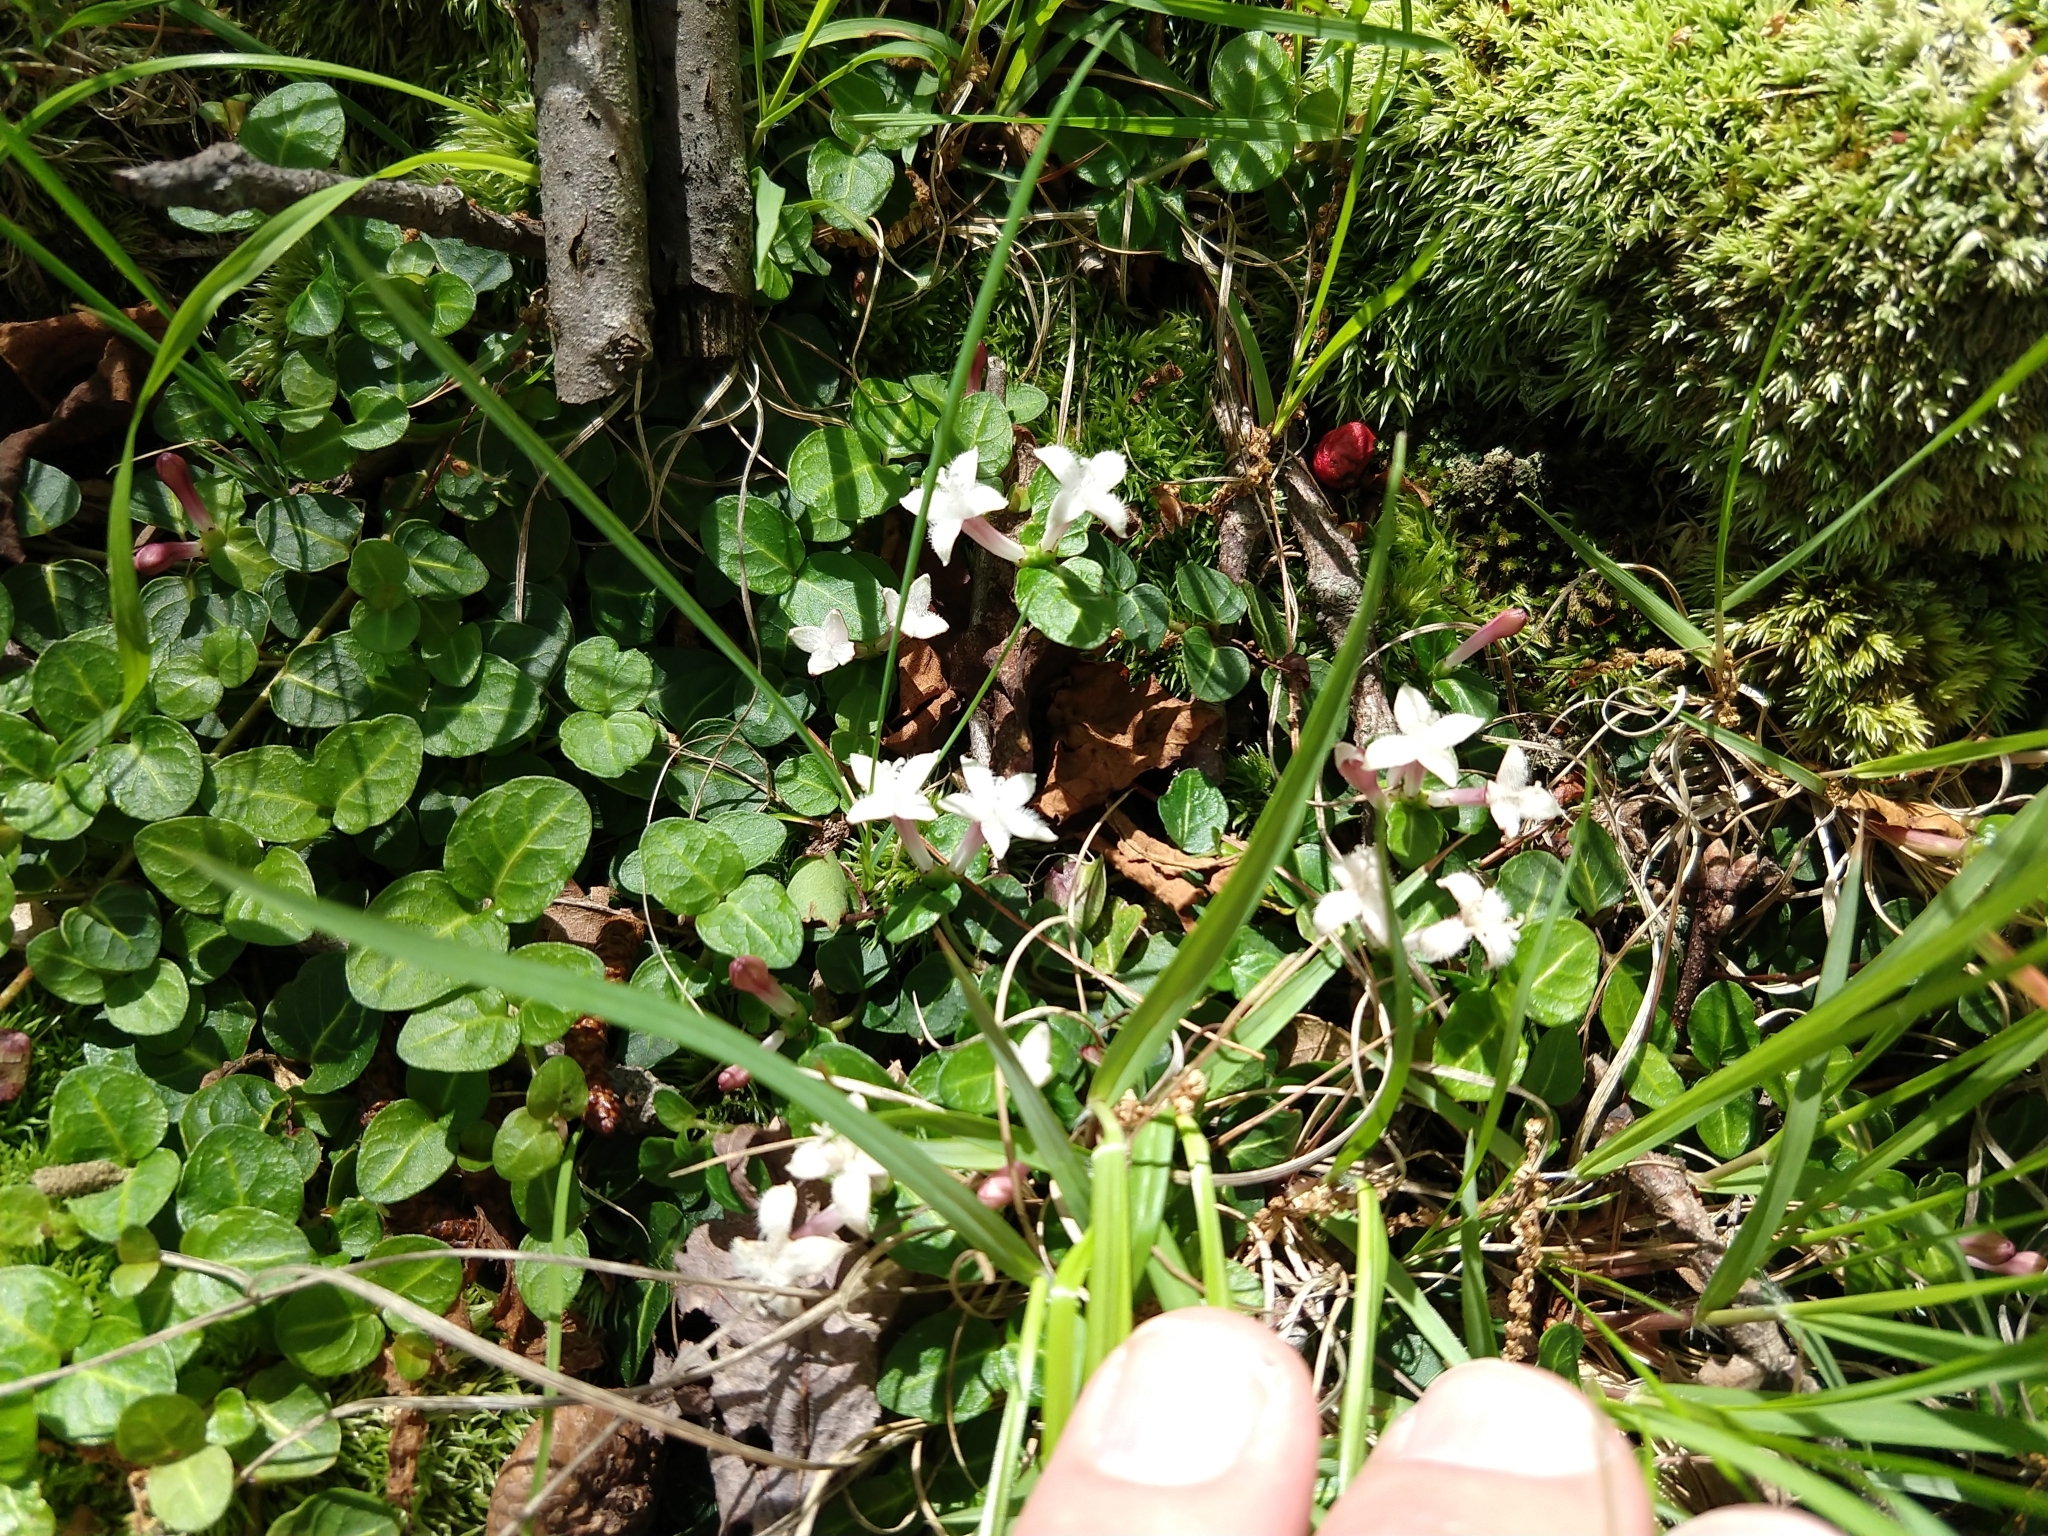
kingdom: Plantae
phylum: Tracheophyta
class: Magnoliopsida
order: Gentianales
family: Rubiaceae
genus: Mitchella
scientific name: Mitchella repens
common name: Partridge-berry
